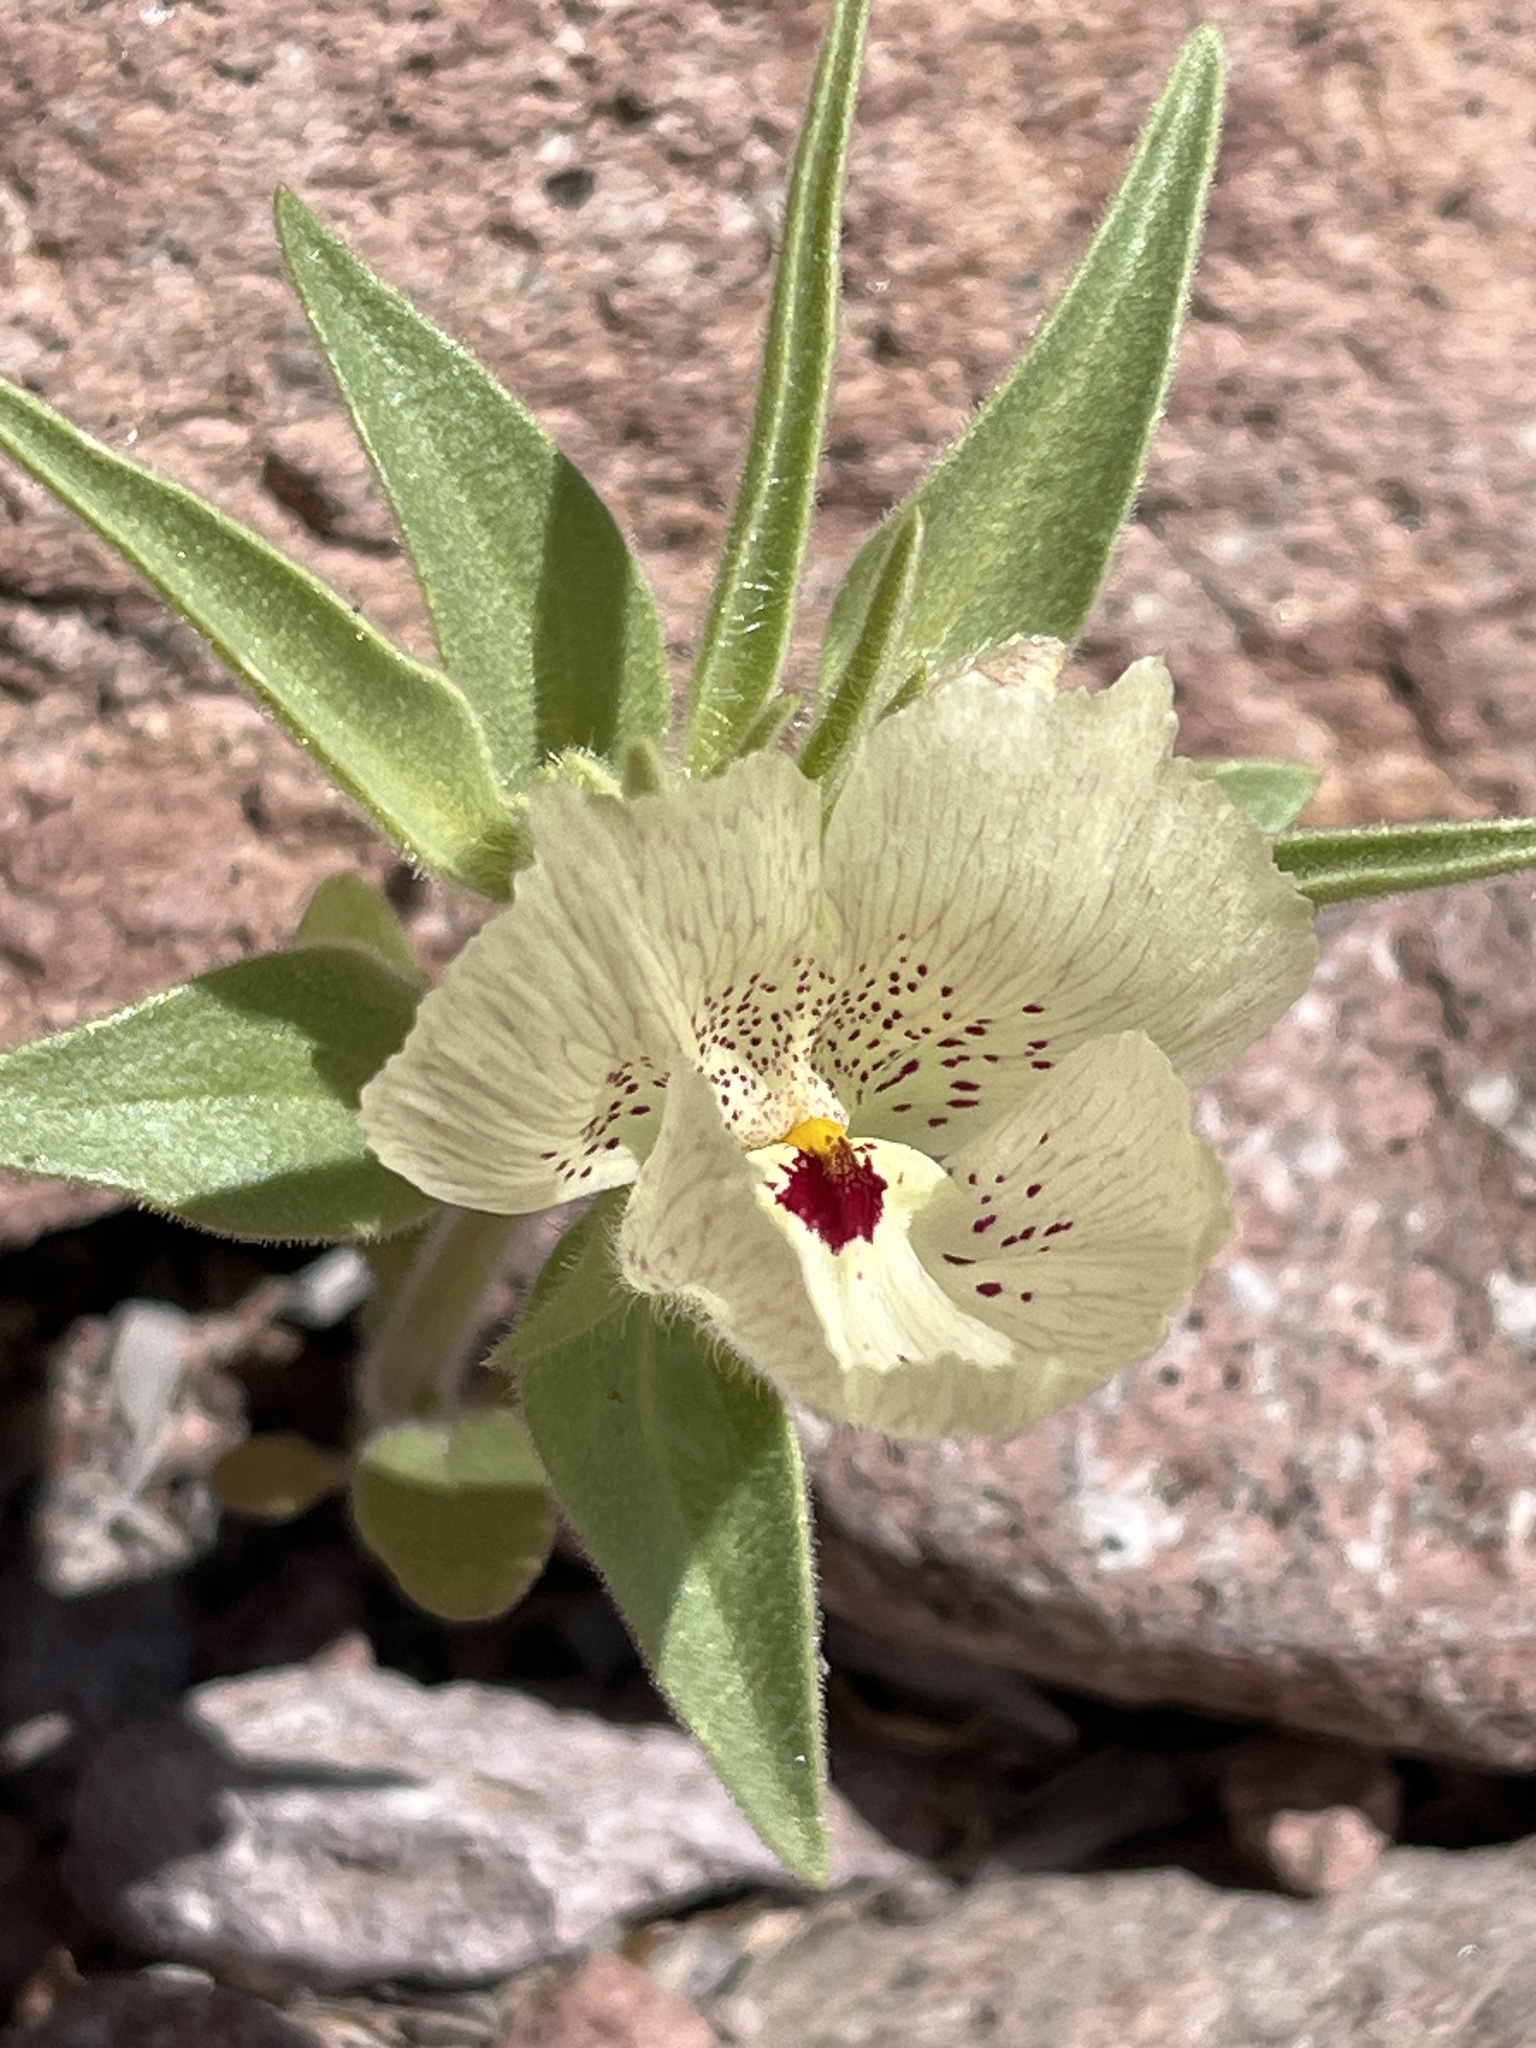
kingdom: Plantae
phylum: Tracheophyta
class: Magnoliopsida
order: Lamiales
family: Plantaginaceae
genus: Mohavea
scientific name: Mohavea confertiflora
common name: Ghost flower
